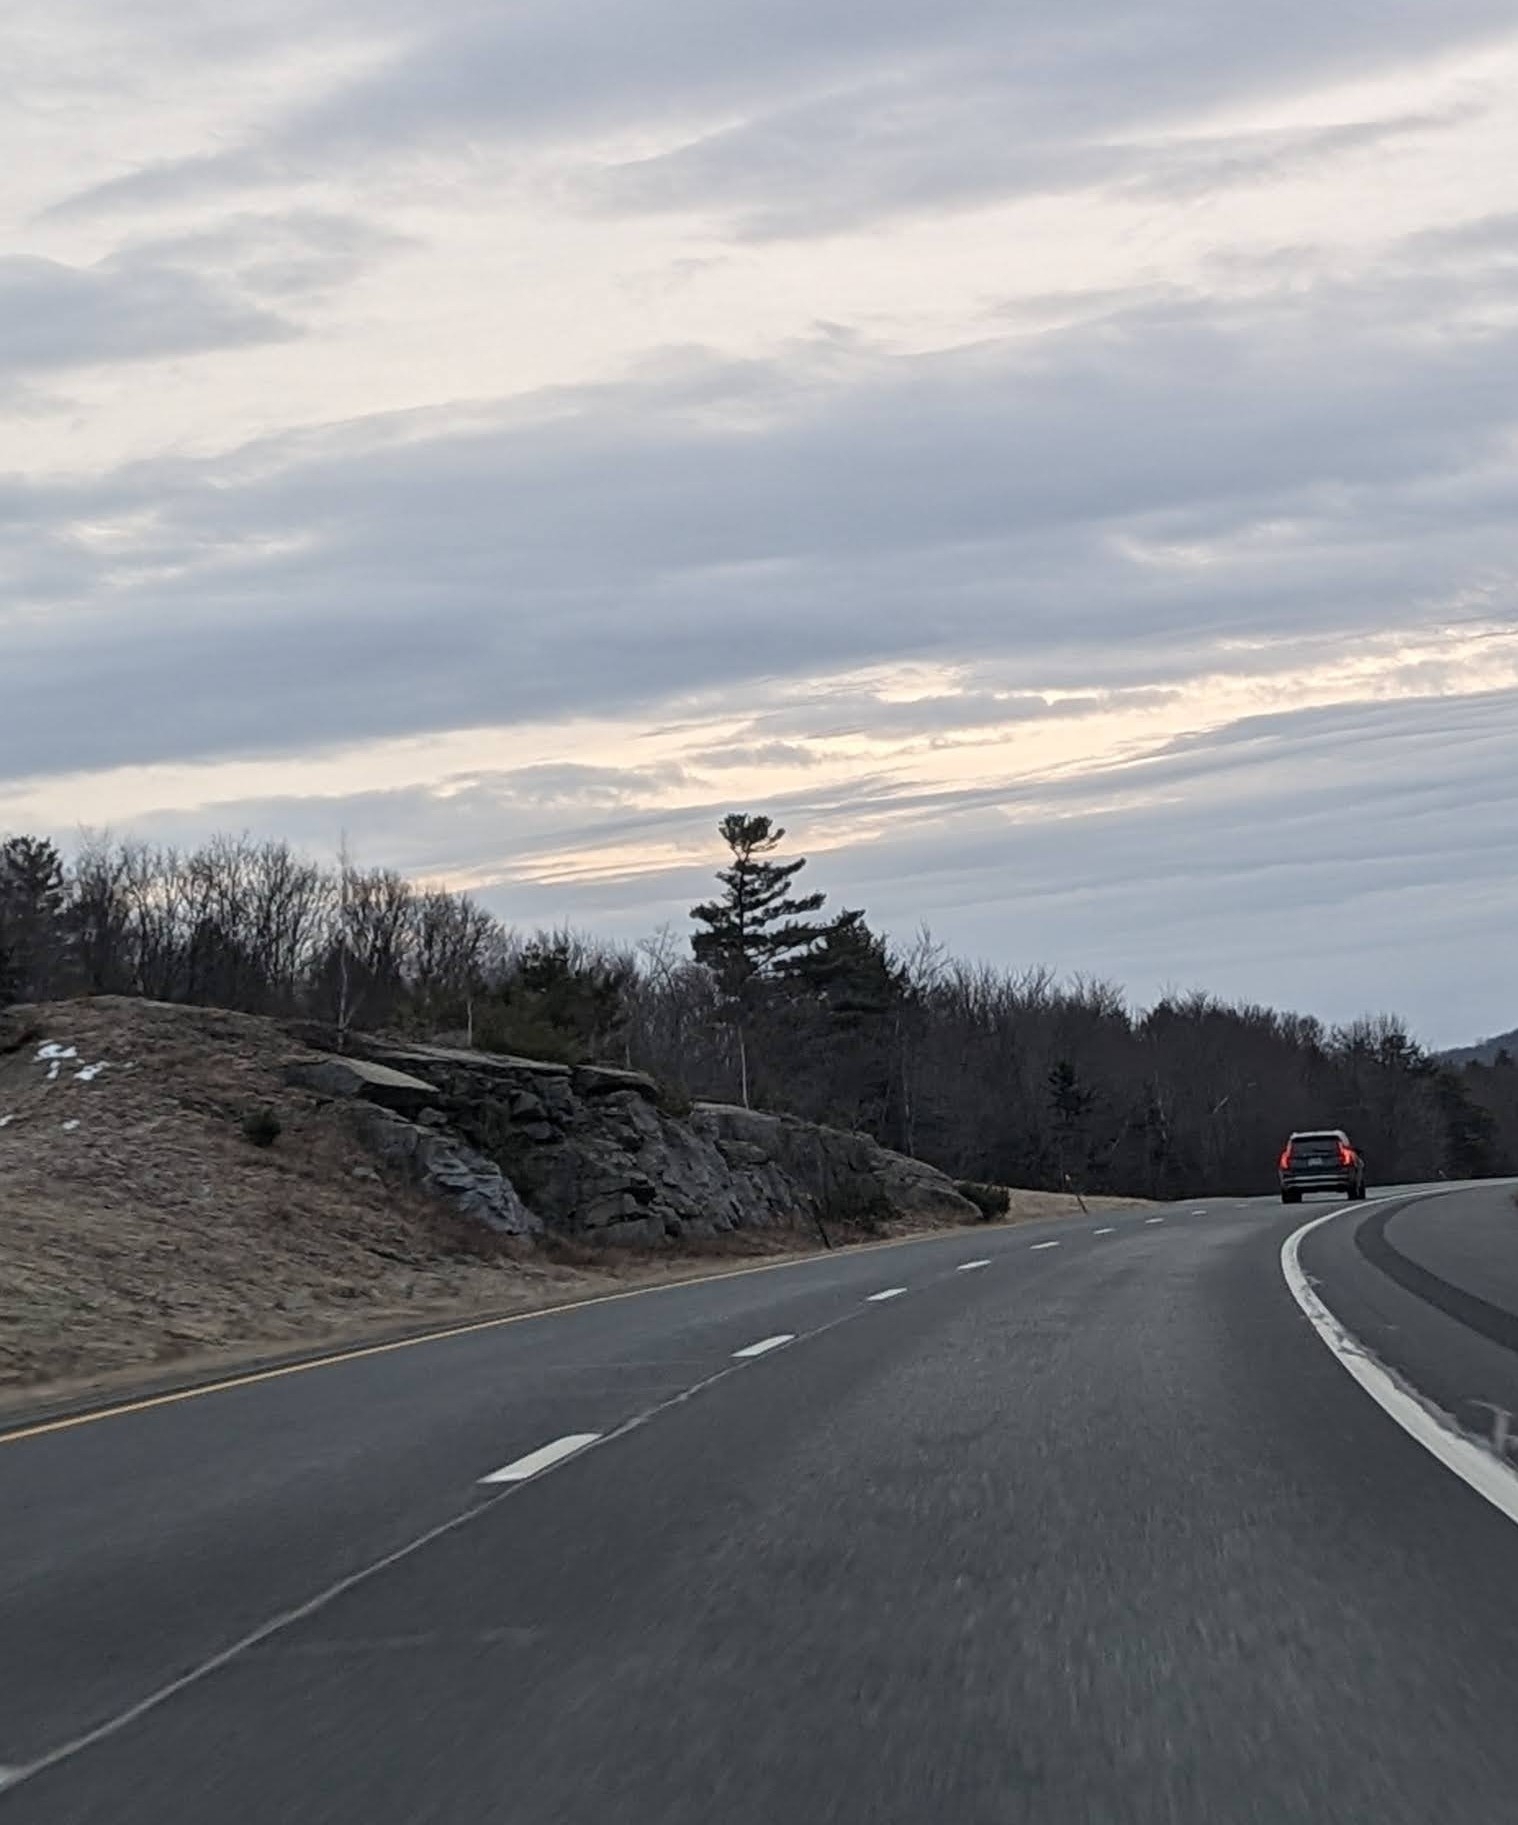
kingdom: Plantae
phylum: Tracheophyta
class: Pinopsida
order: Pinales
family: Pinaceae
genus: Pinus
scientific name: Pinus strobus
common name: Weymouth pine
